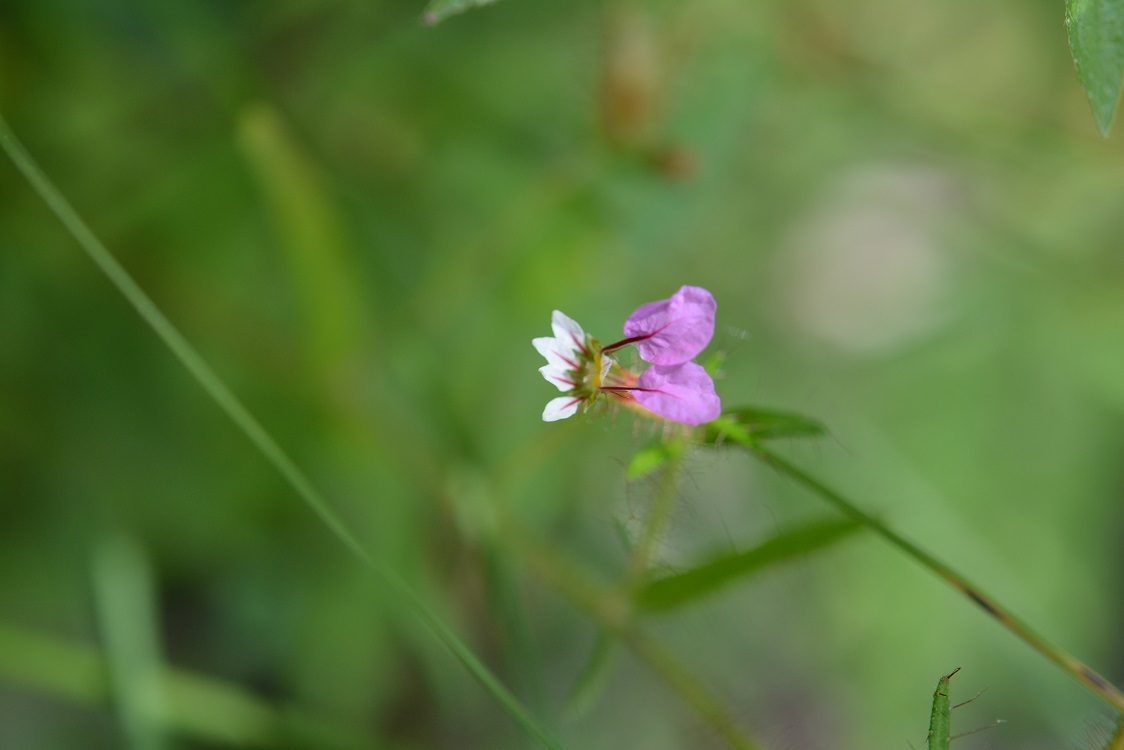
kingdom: Plantae
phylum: Tracheophyta
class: Magnoliopsida
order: Myrtales
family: Lythraceae
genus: Cuphea
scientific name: Cuphea leptopoda
